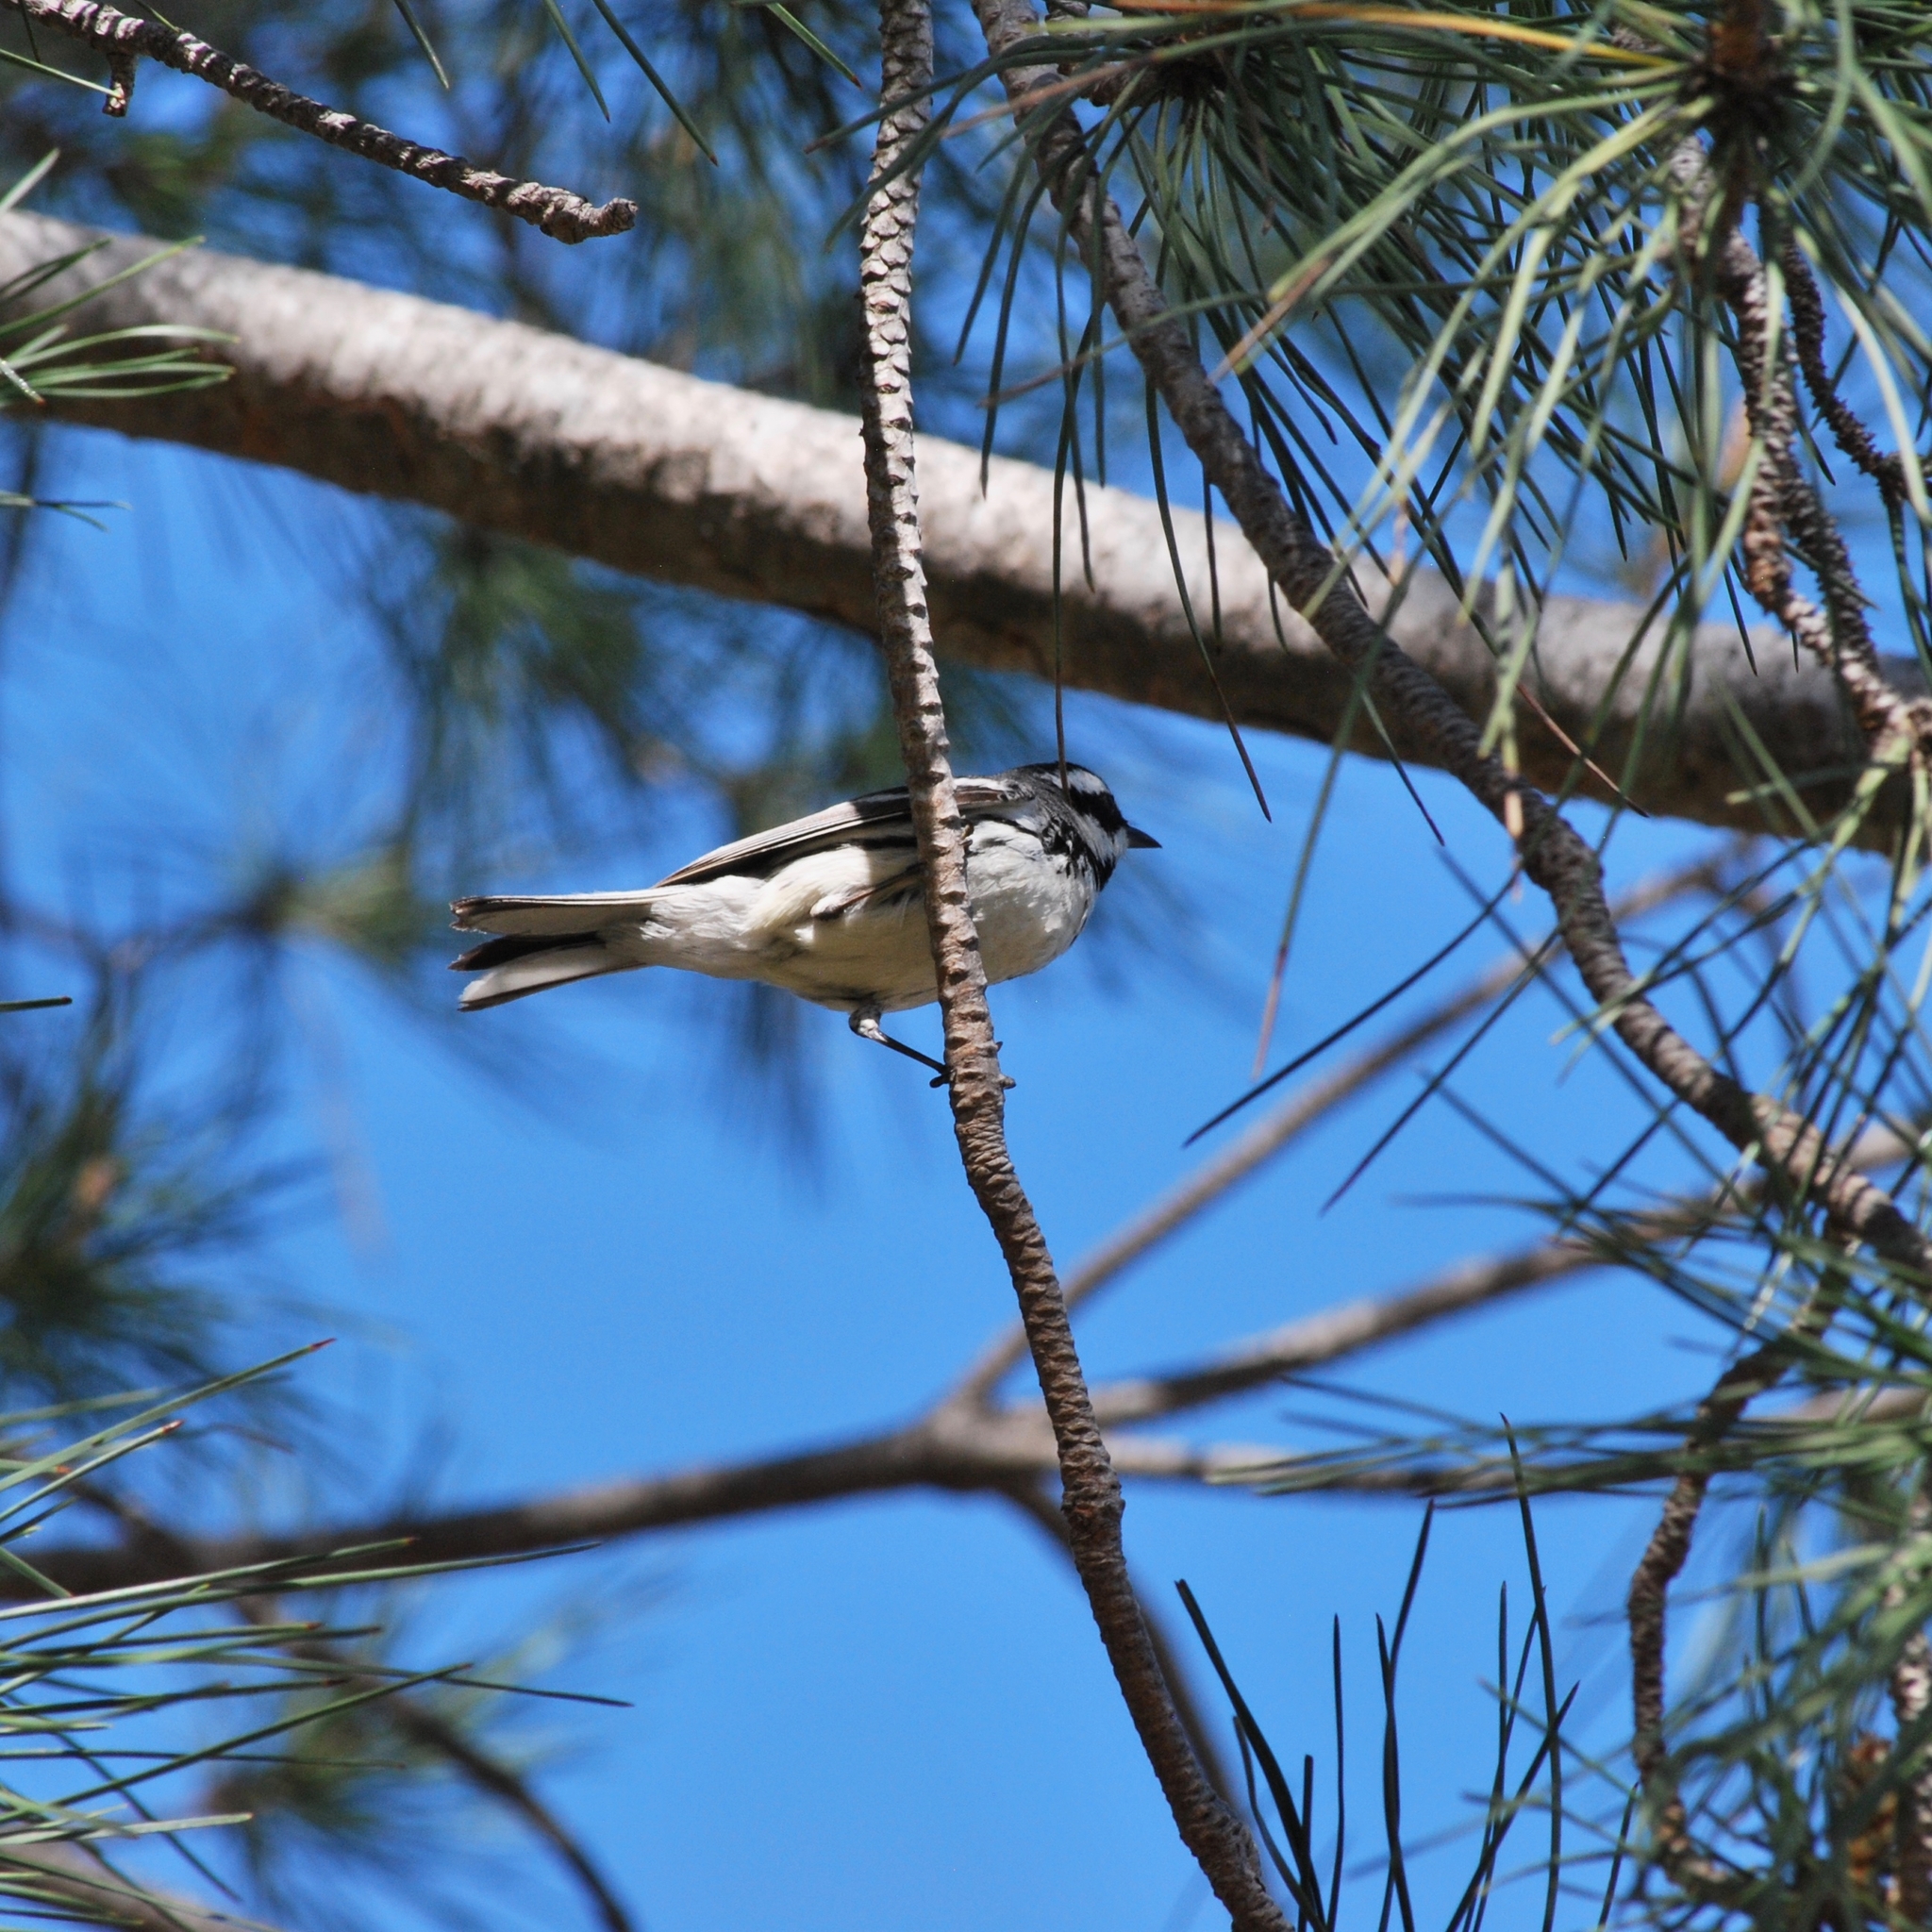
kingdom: Animalia
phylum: Chordata
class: Aves
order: Passeriformes
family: Parulidae
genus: Setophaga
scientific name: Setophaga nigrescens
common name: Black-throated gray warbler
